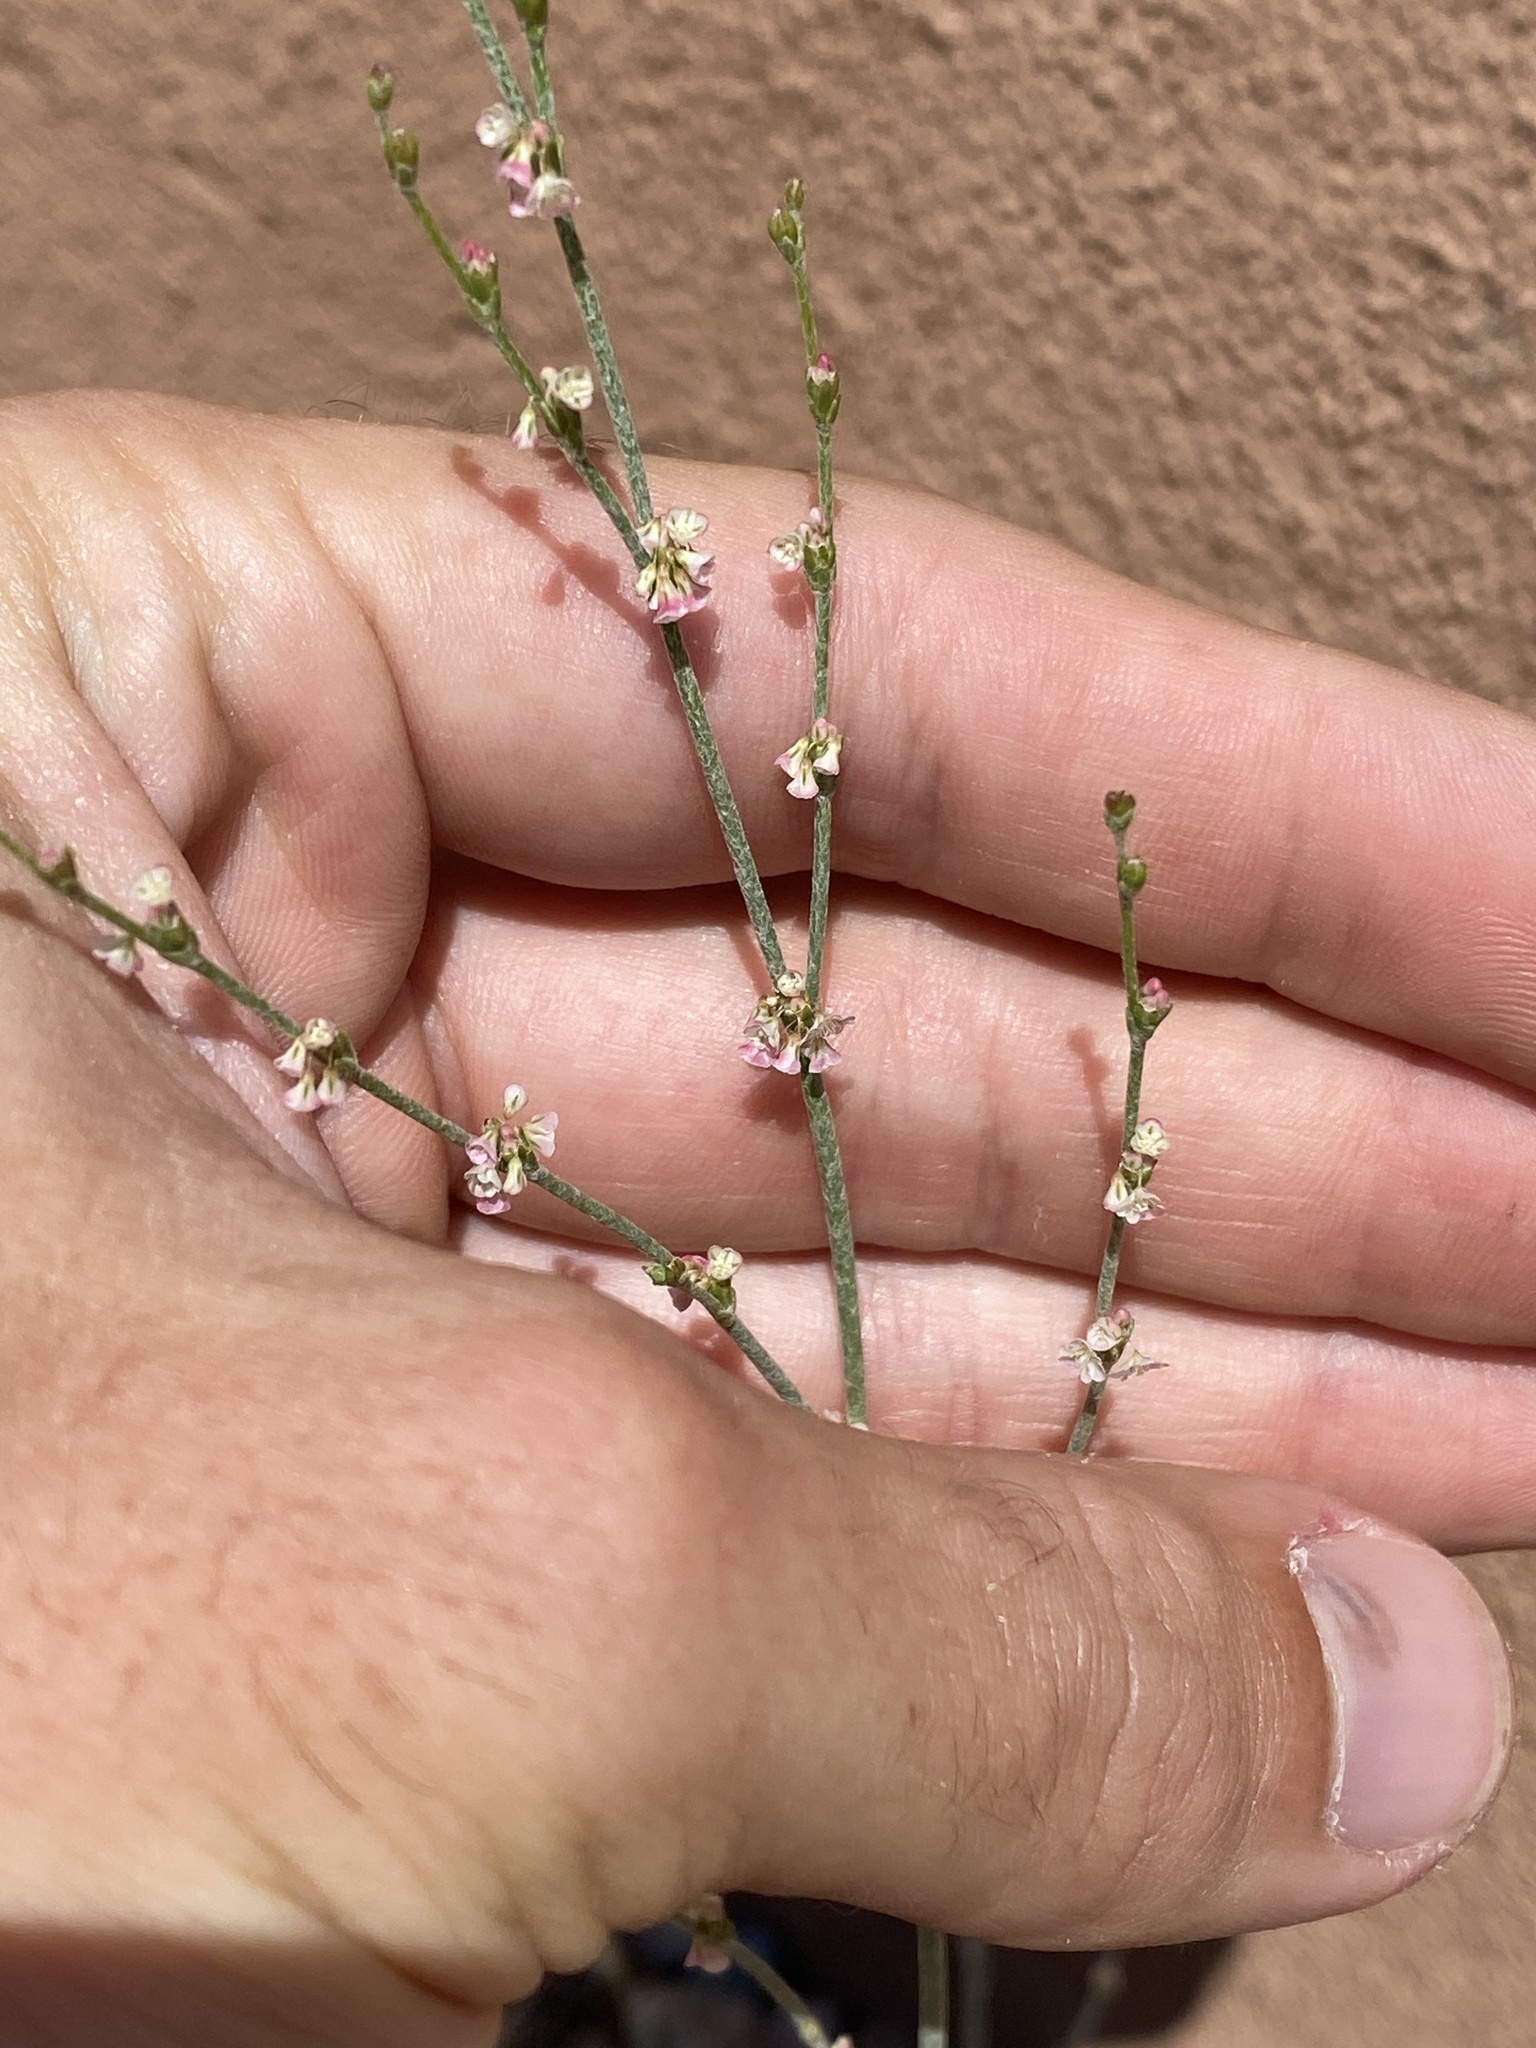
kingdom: Plantae
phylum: Tracheophyta
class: Magnoliopsida
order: Caryophyllales
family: Polygonaceae
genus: Eriogonum
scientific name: Eriogonum polycladon
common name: Sorrel wild buckwheat
